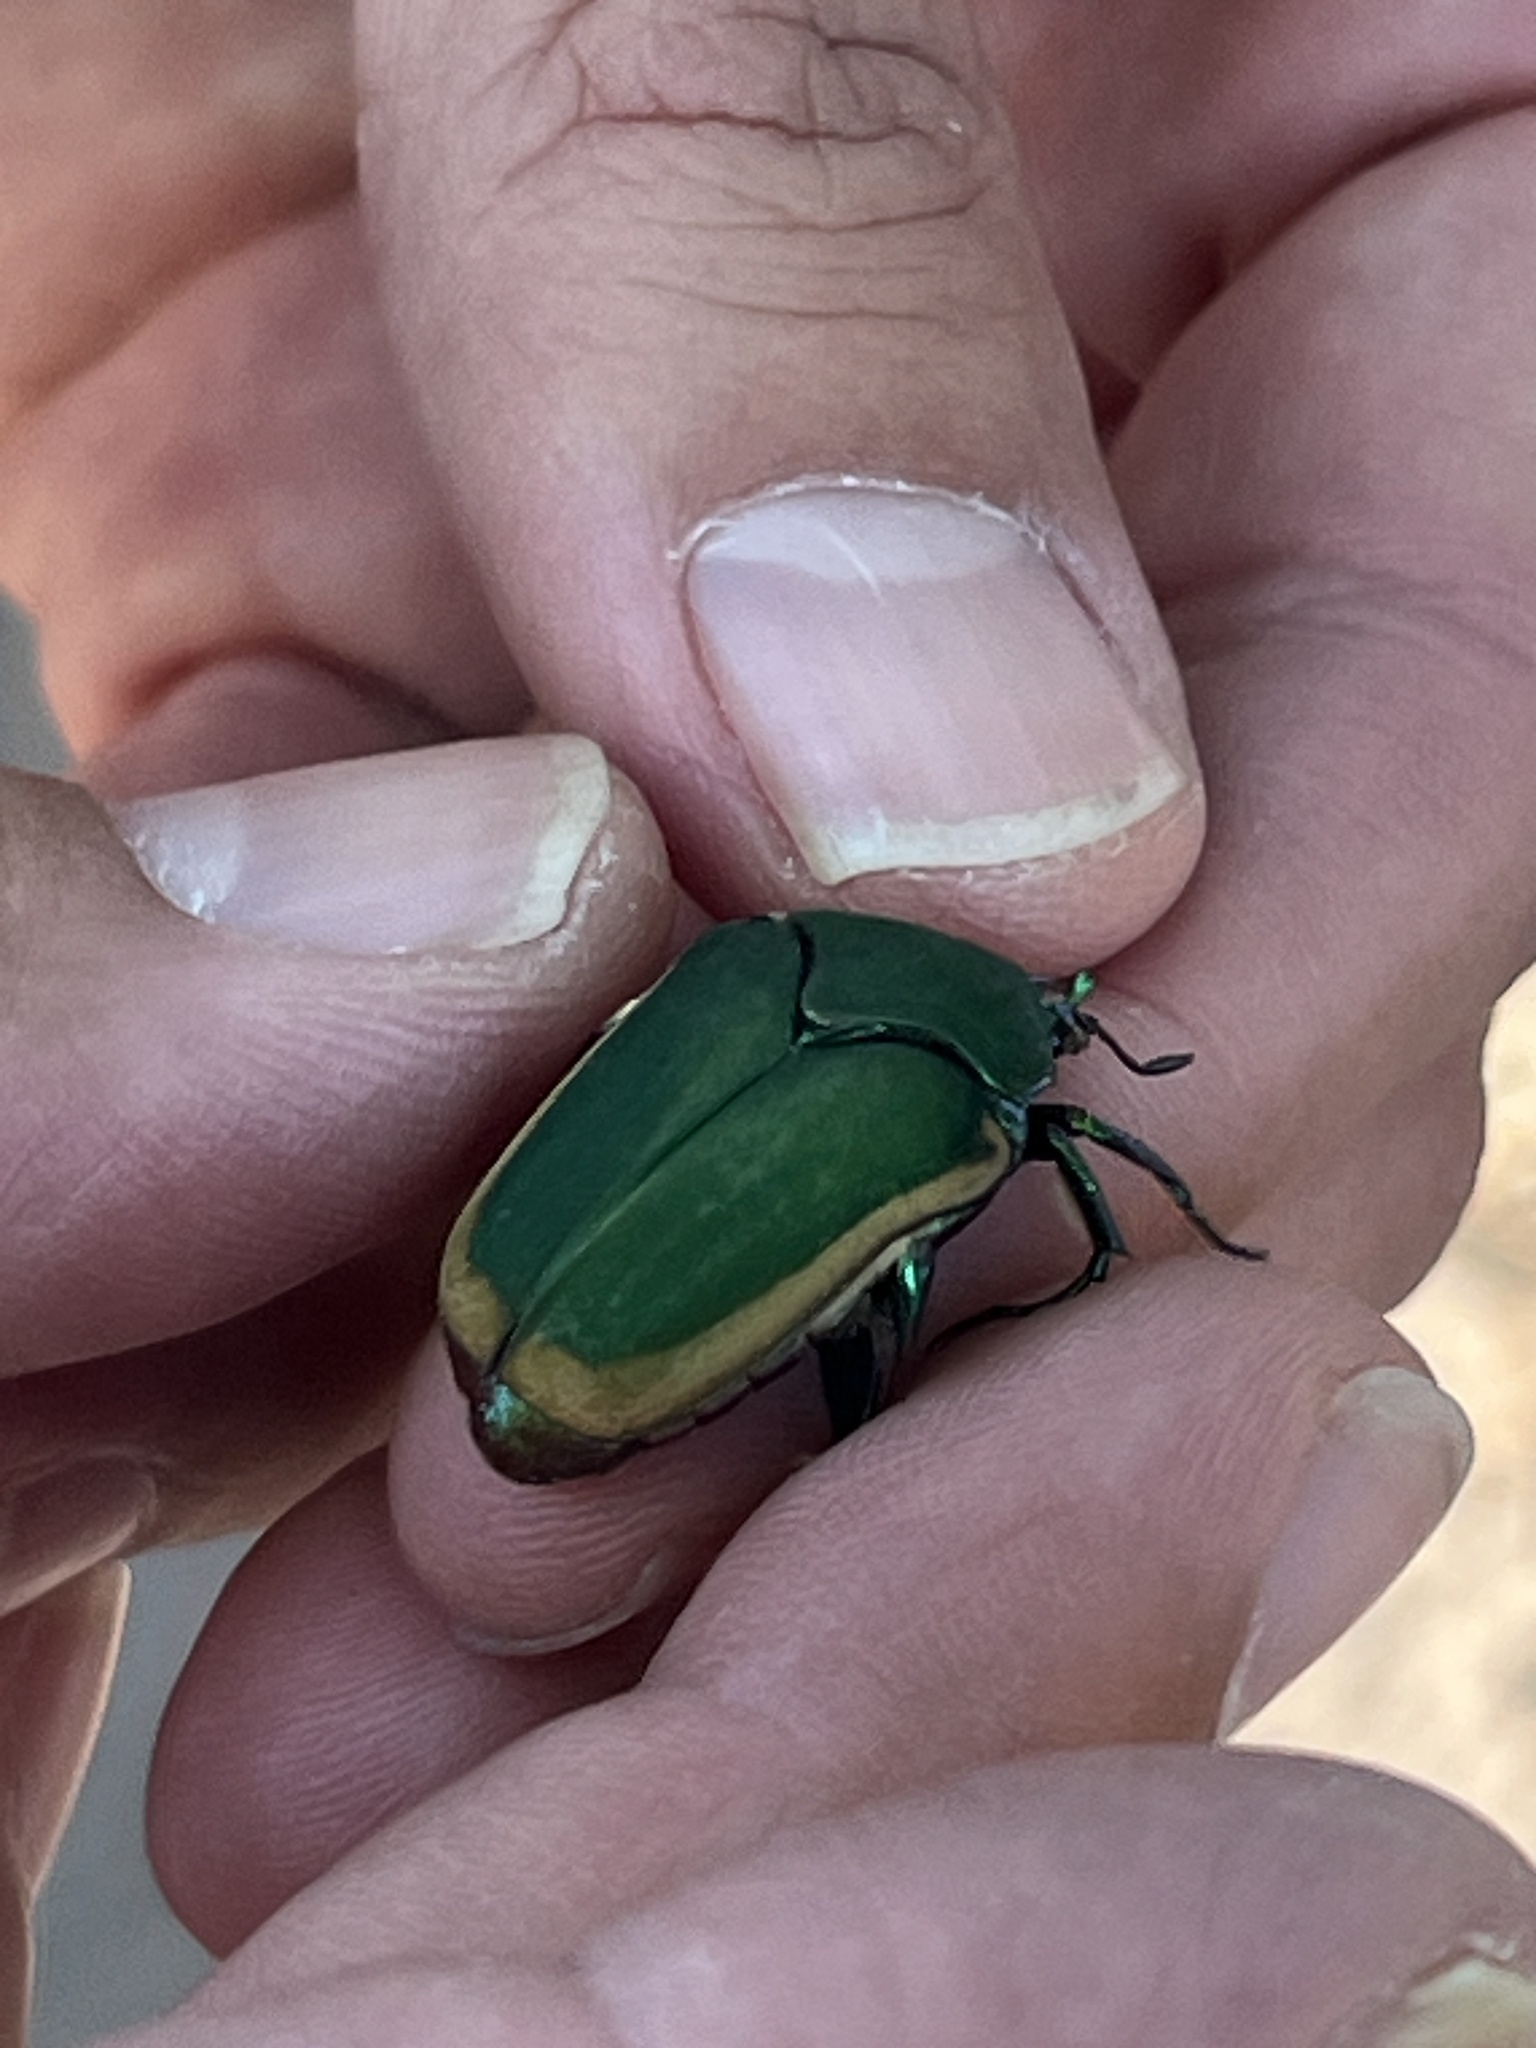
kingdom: Animalia
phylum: Arthropoda
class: Insecta
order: Coleoptera
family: Scarabaeidae
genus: Cotinis
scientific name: Cotinis mutabilis
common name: Figeater beetle
